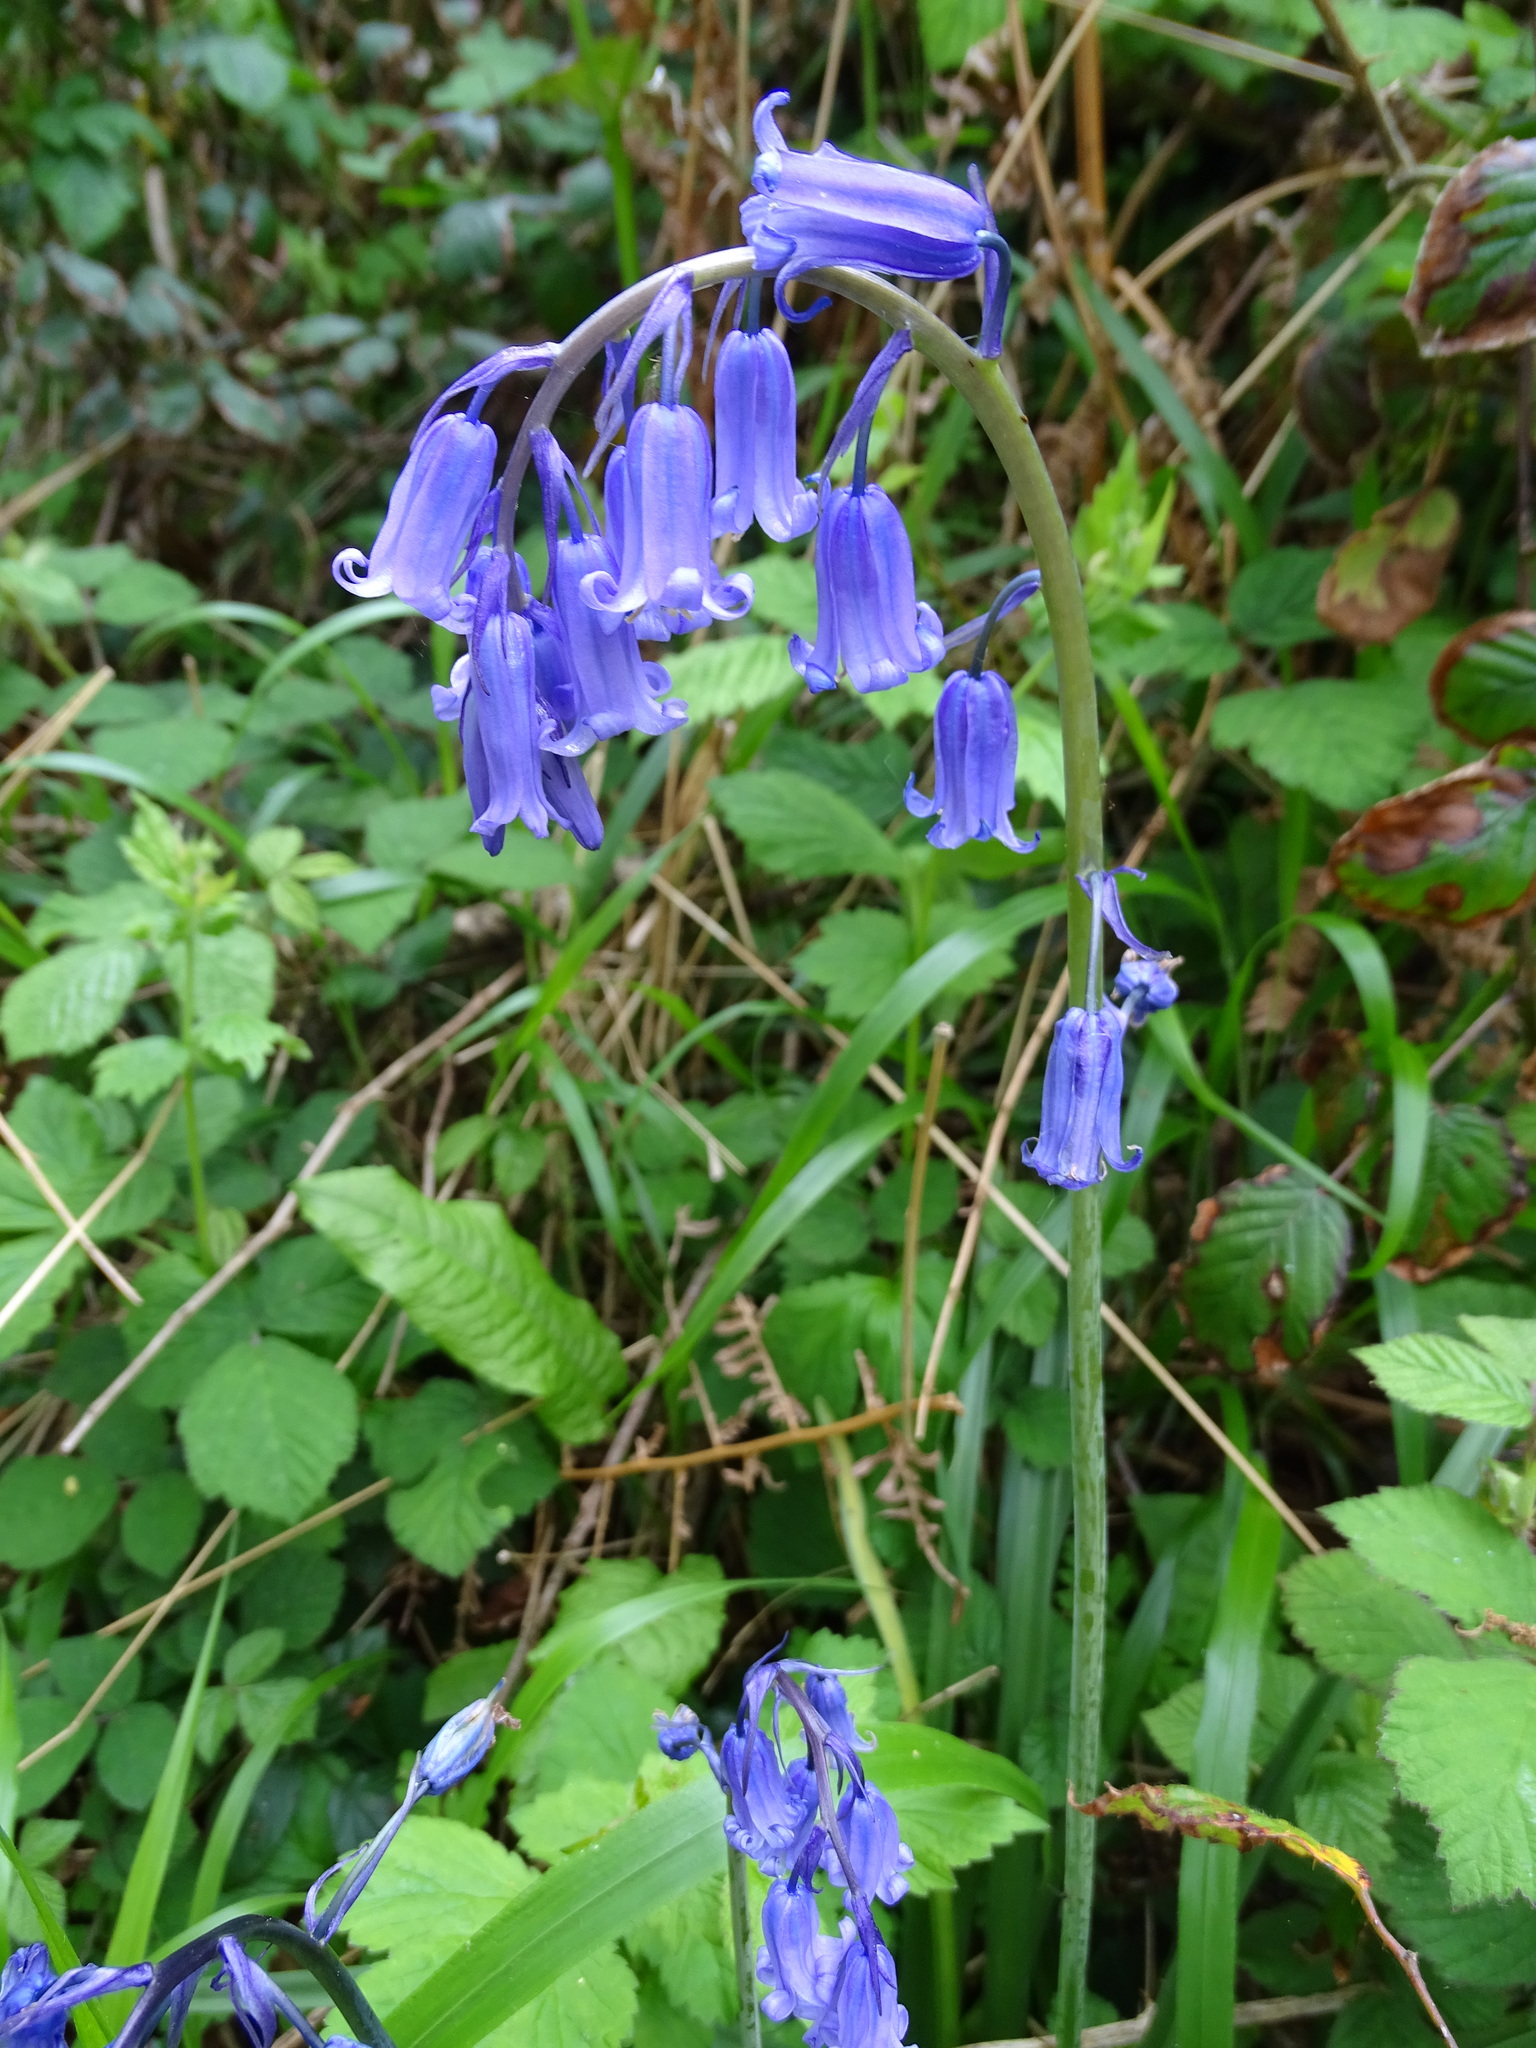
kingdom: Plantae
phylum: Tracheophyta
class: Liliopsida
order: Asparagales
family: Asparagaceae
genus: Hyacinthoides
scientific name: Hyacinthoides non-scripta
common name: Bluebell
